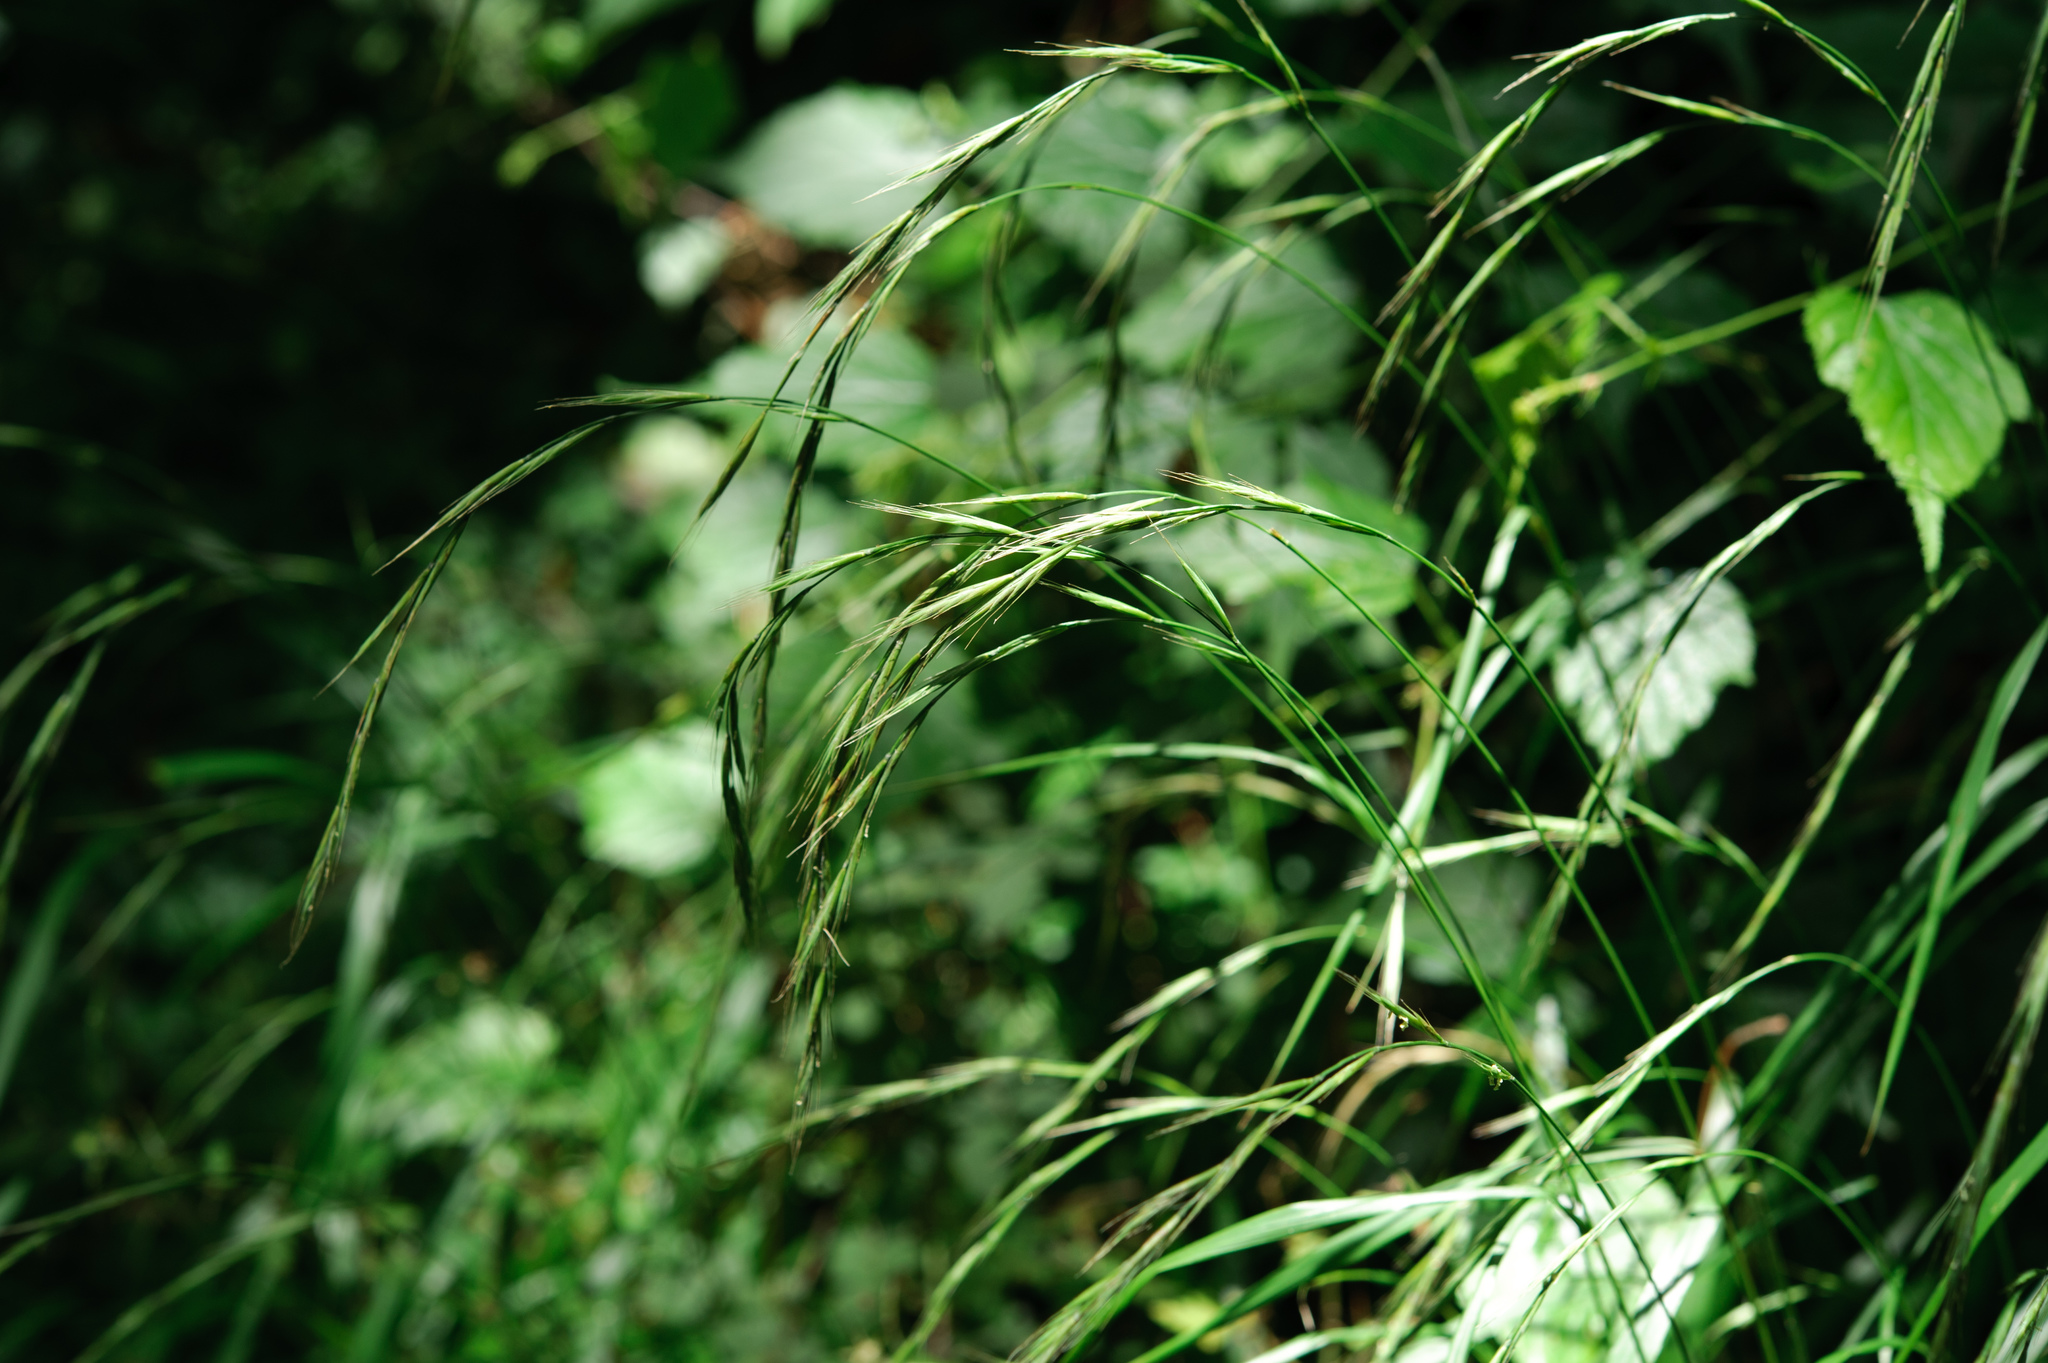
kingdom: Plantae
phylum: Tracheophyta
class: Liliopsida
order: Poales
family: Poaceae
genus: Brachypodium
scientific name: Brachypodium sylvaticum
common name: False-brome
